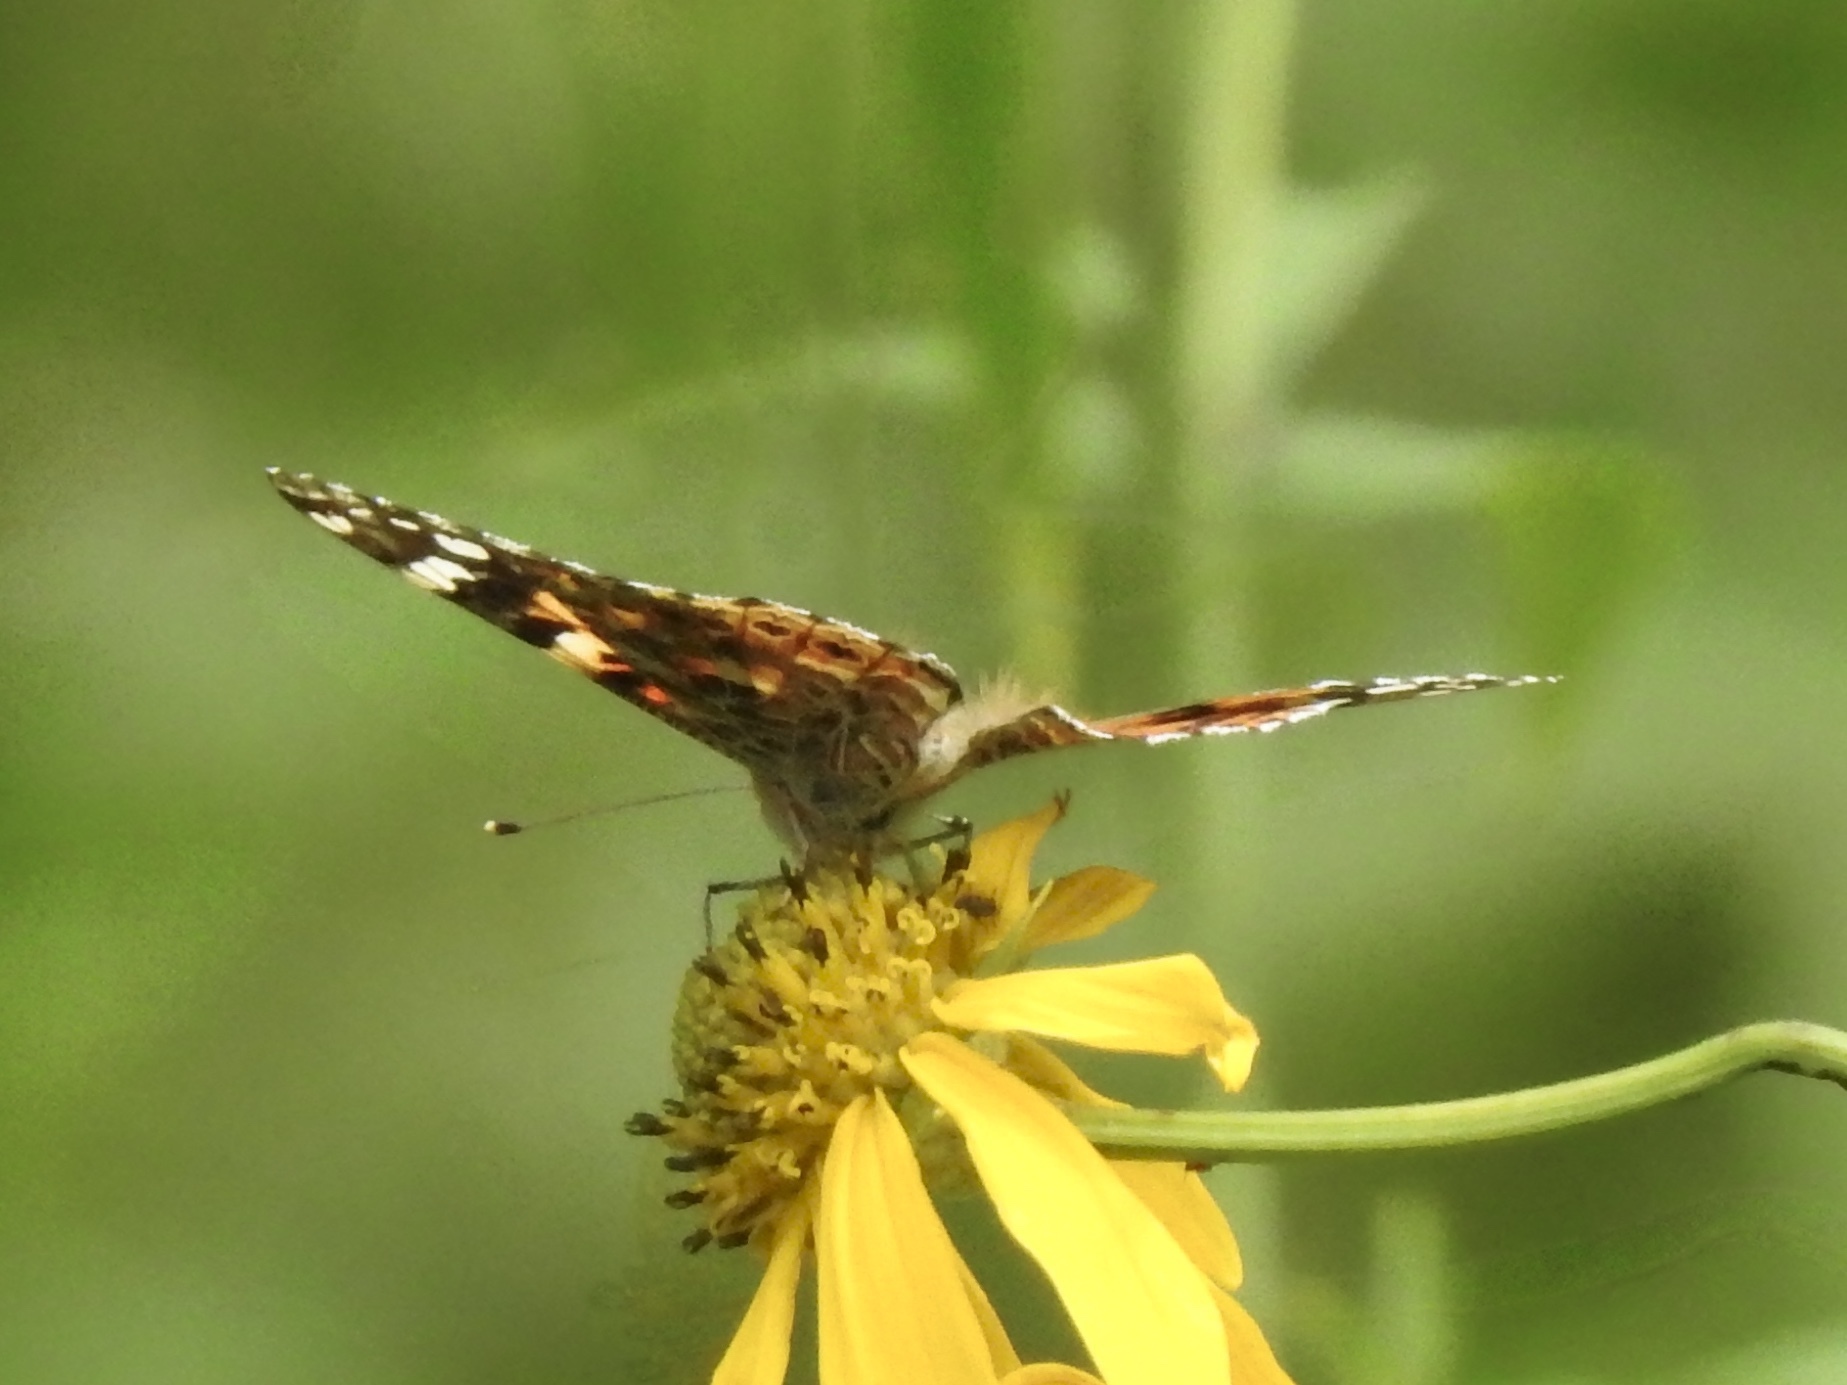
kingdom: Animalia
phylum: Arthropoda
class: Insecta
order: Lepidoptera
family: Nymphalidae
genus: Vanessa
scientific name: Vanessa cardui
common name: Painted lady
